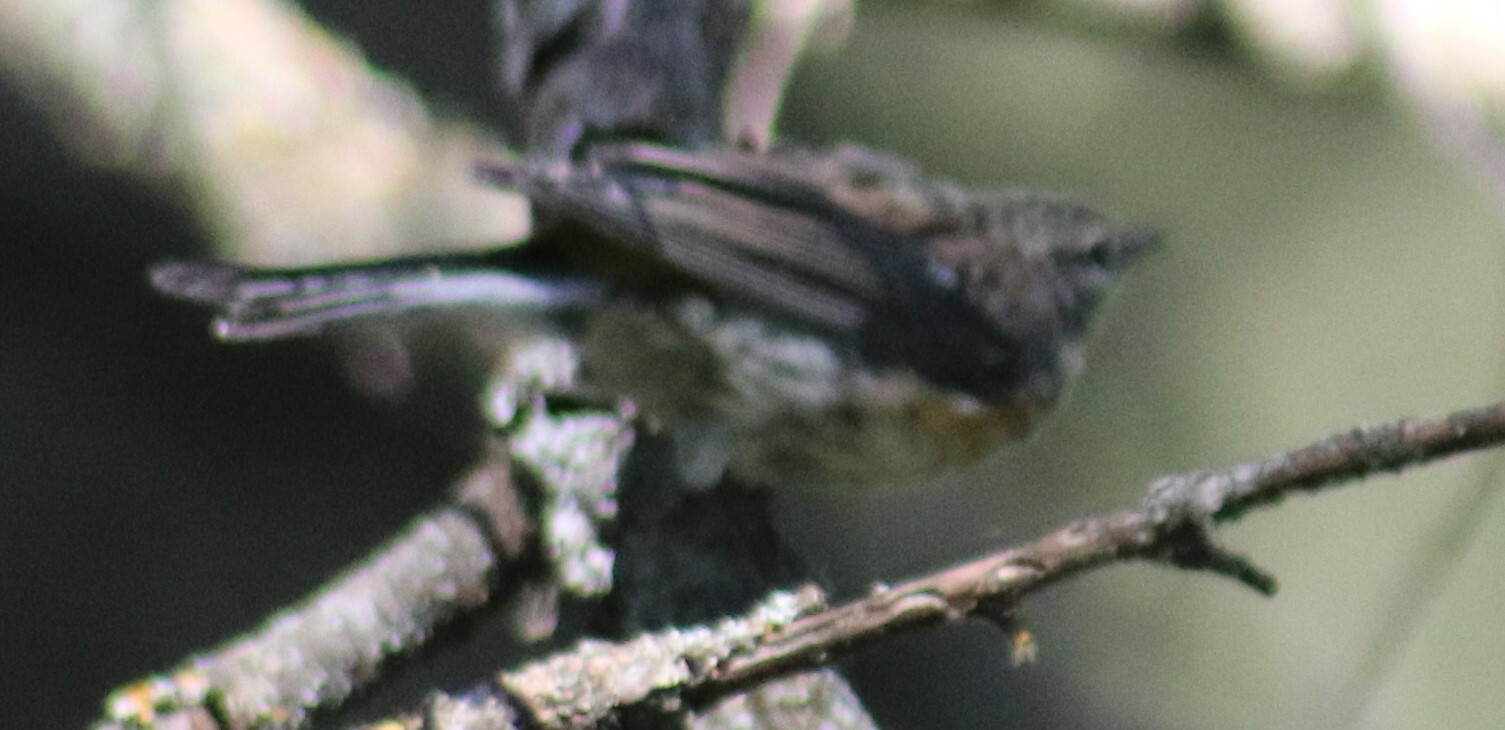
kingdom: Animalia
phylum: Chordata
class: Aves
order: Passeriformes
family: Parulidae
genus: Setophaga
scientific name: Setophaga coronata
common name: Myrtle warbler
